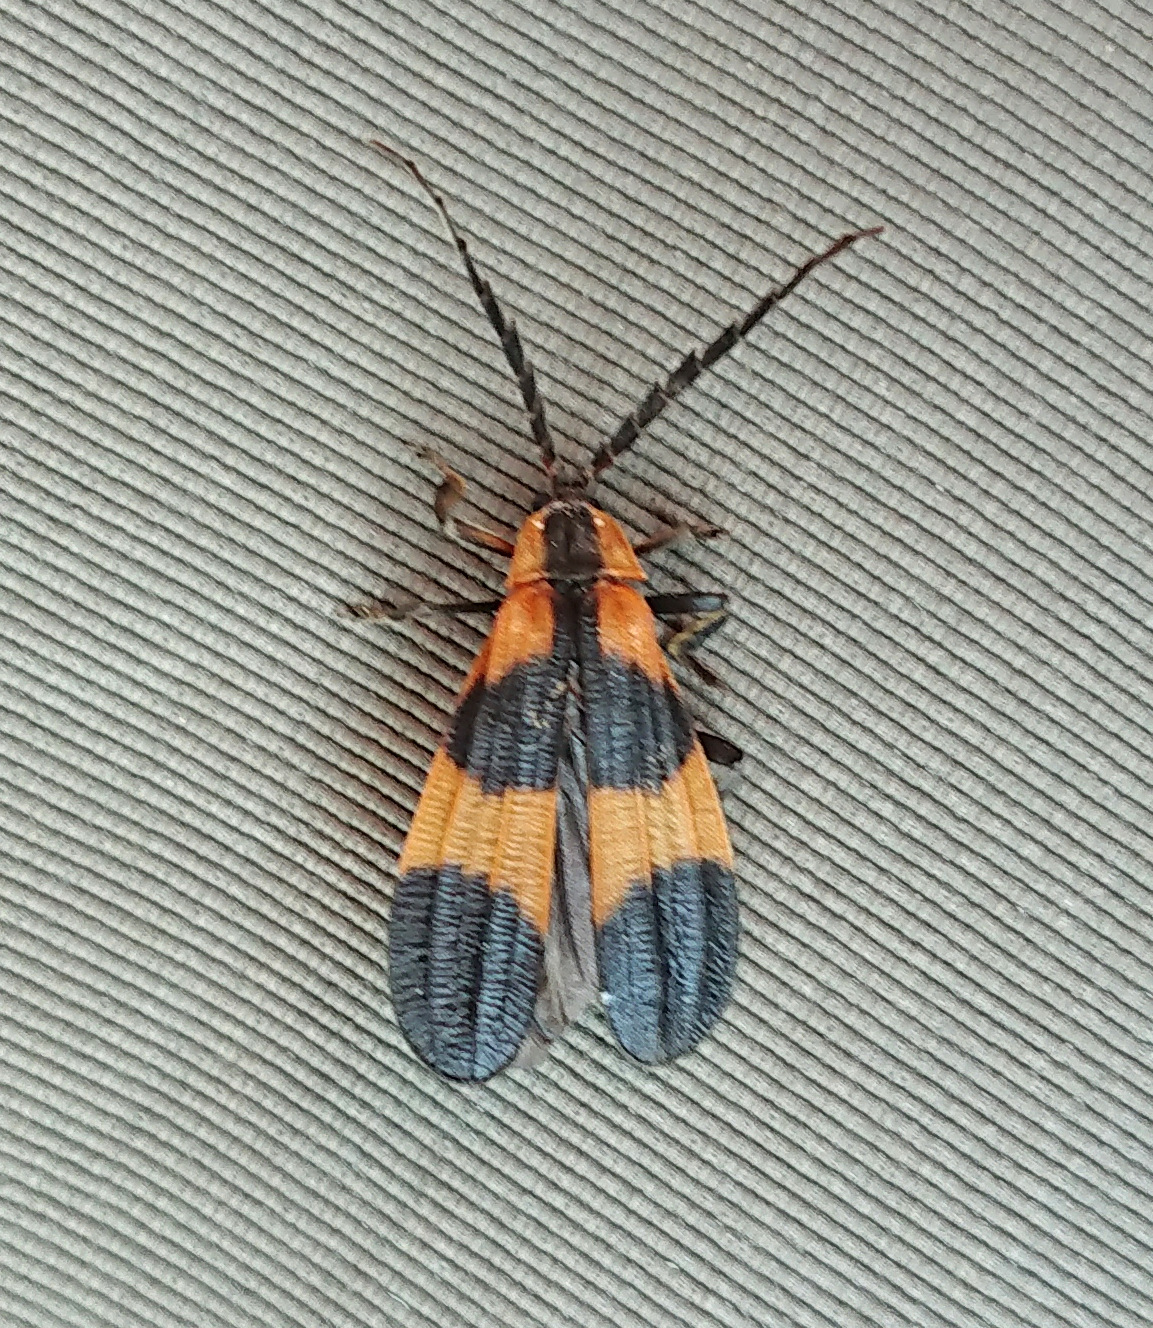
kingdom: Animalia
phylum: Arthropoda
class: Insecta
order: Coleoptera
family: Lycidae
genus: Calopteron
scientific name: Calopteron reticulatum
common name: Banded net-winged beetle
